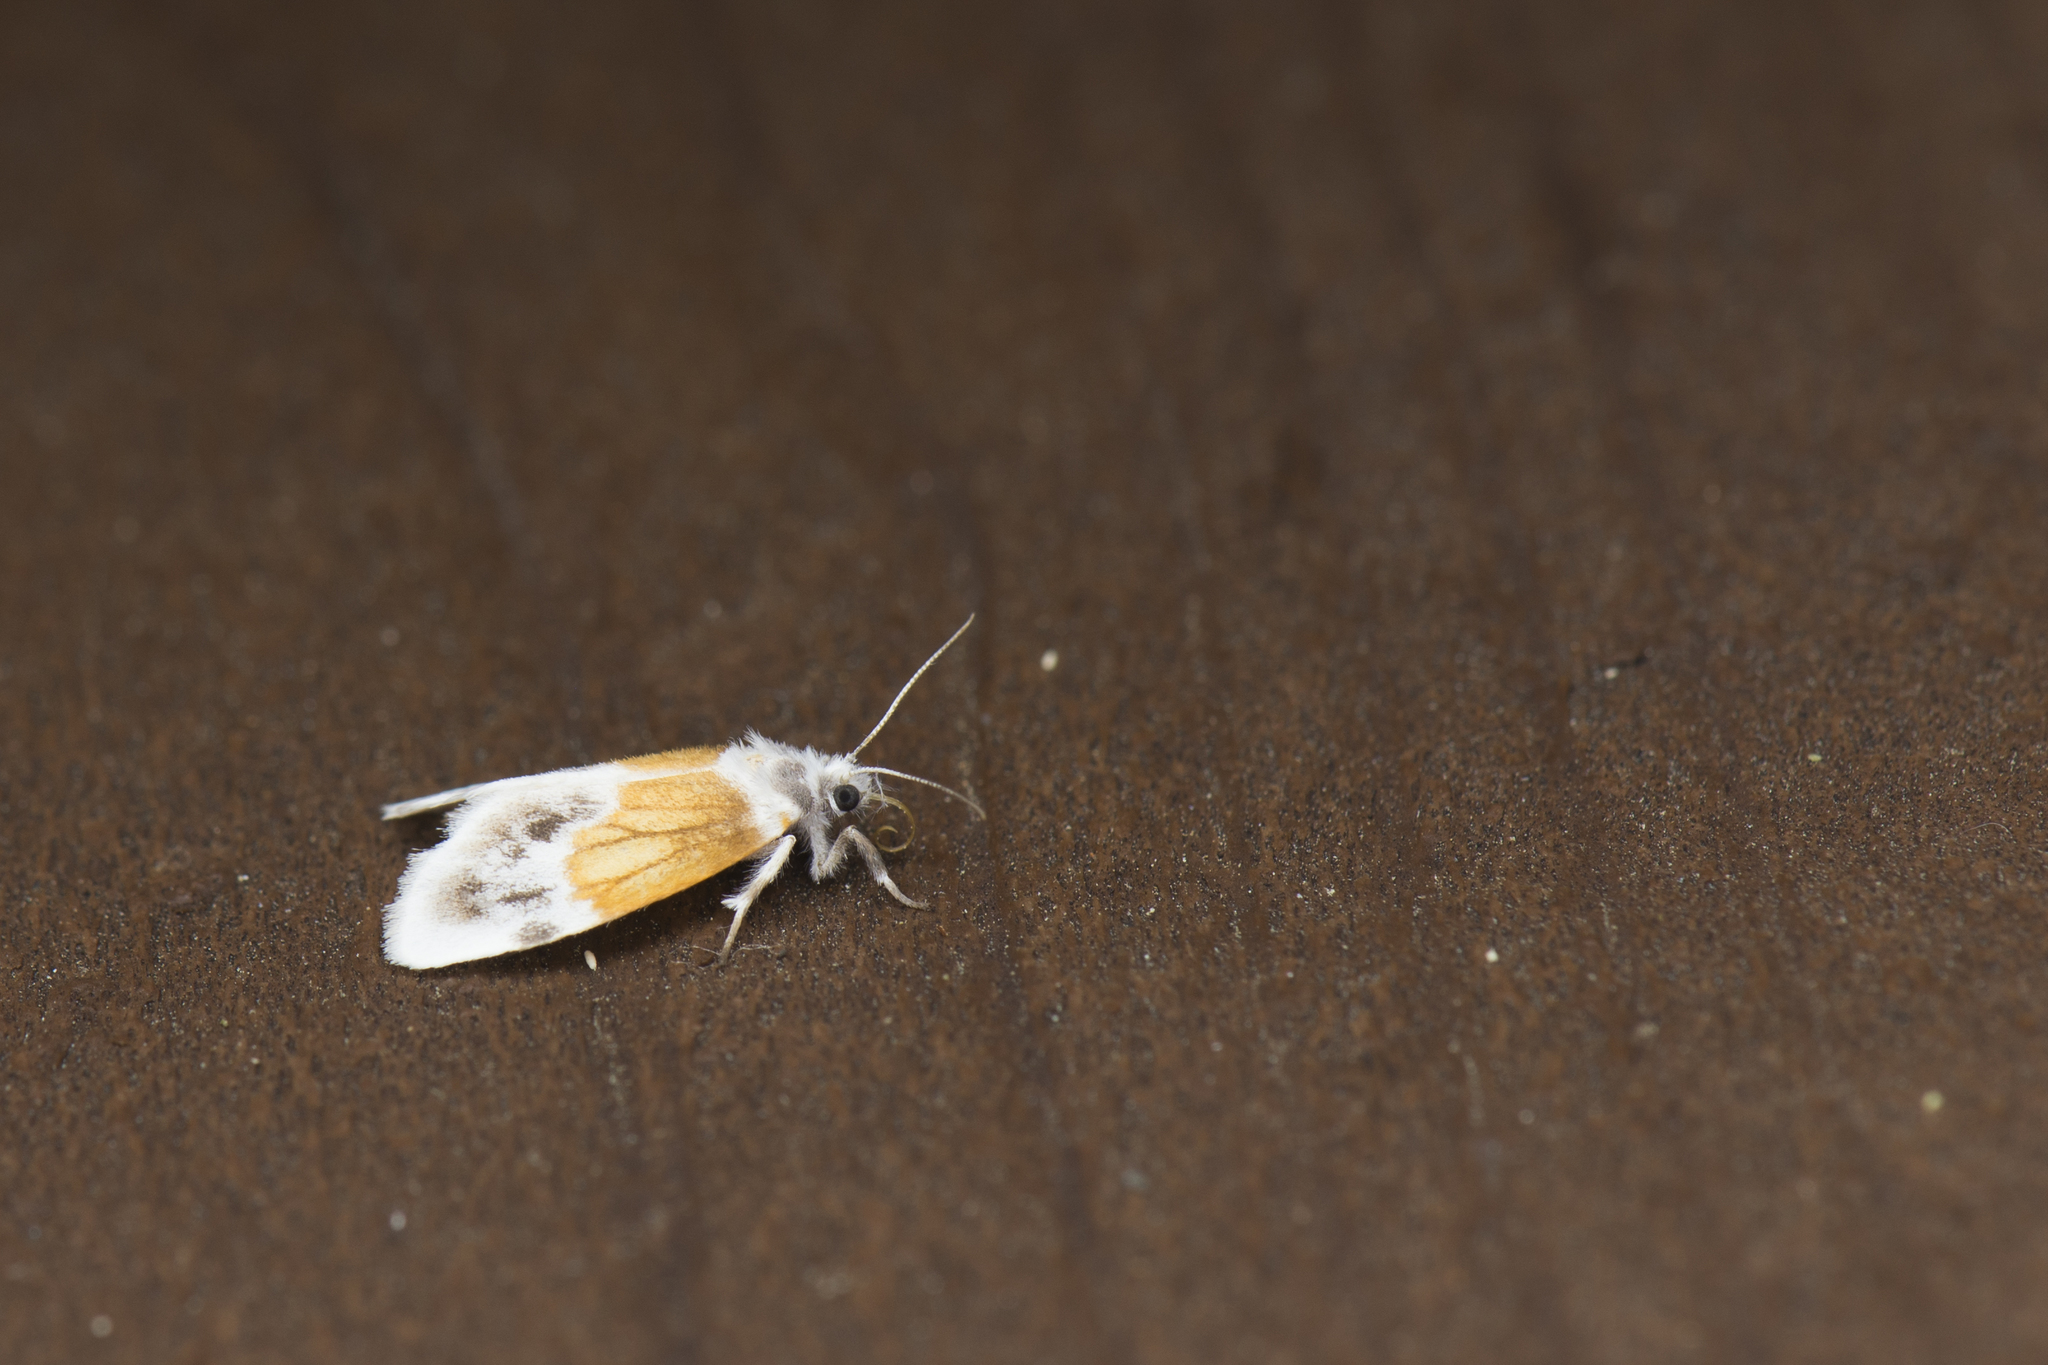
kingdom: Animalia
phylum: Arthropoda
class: Insecta
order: Lepidoptera
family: Erebidae
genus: Ovipennis
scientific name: Ovipennis semilutea
